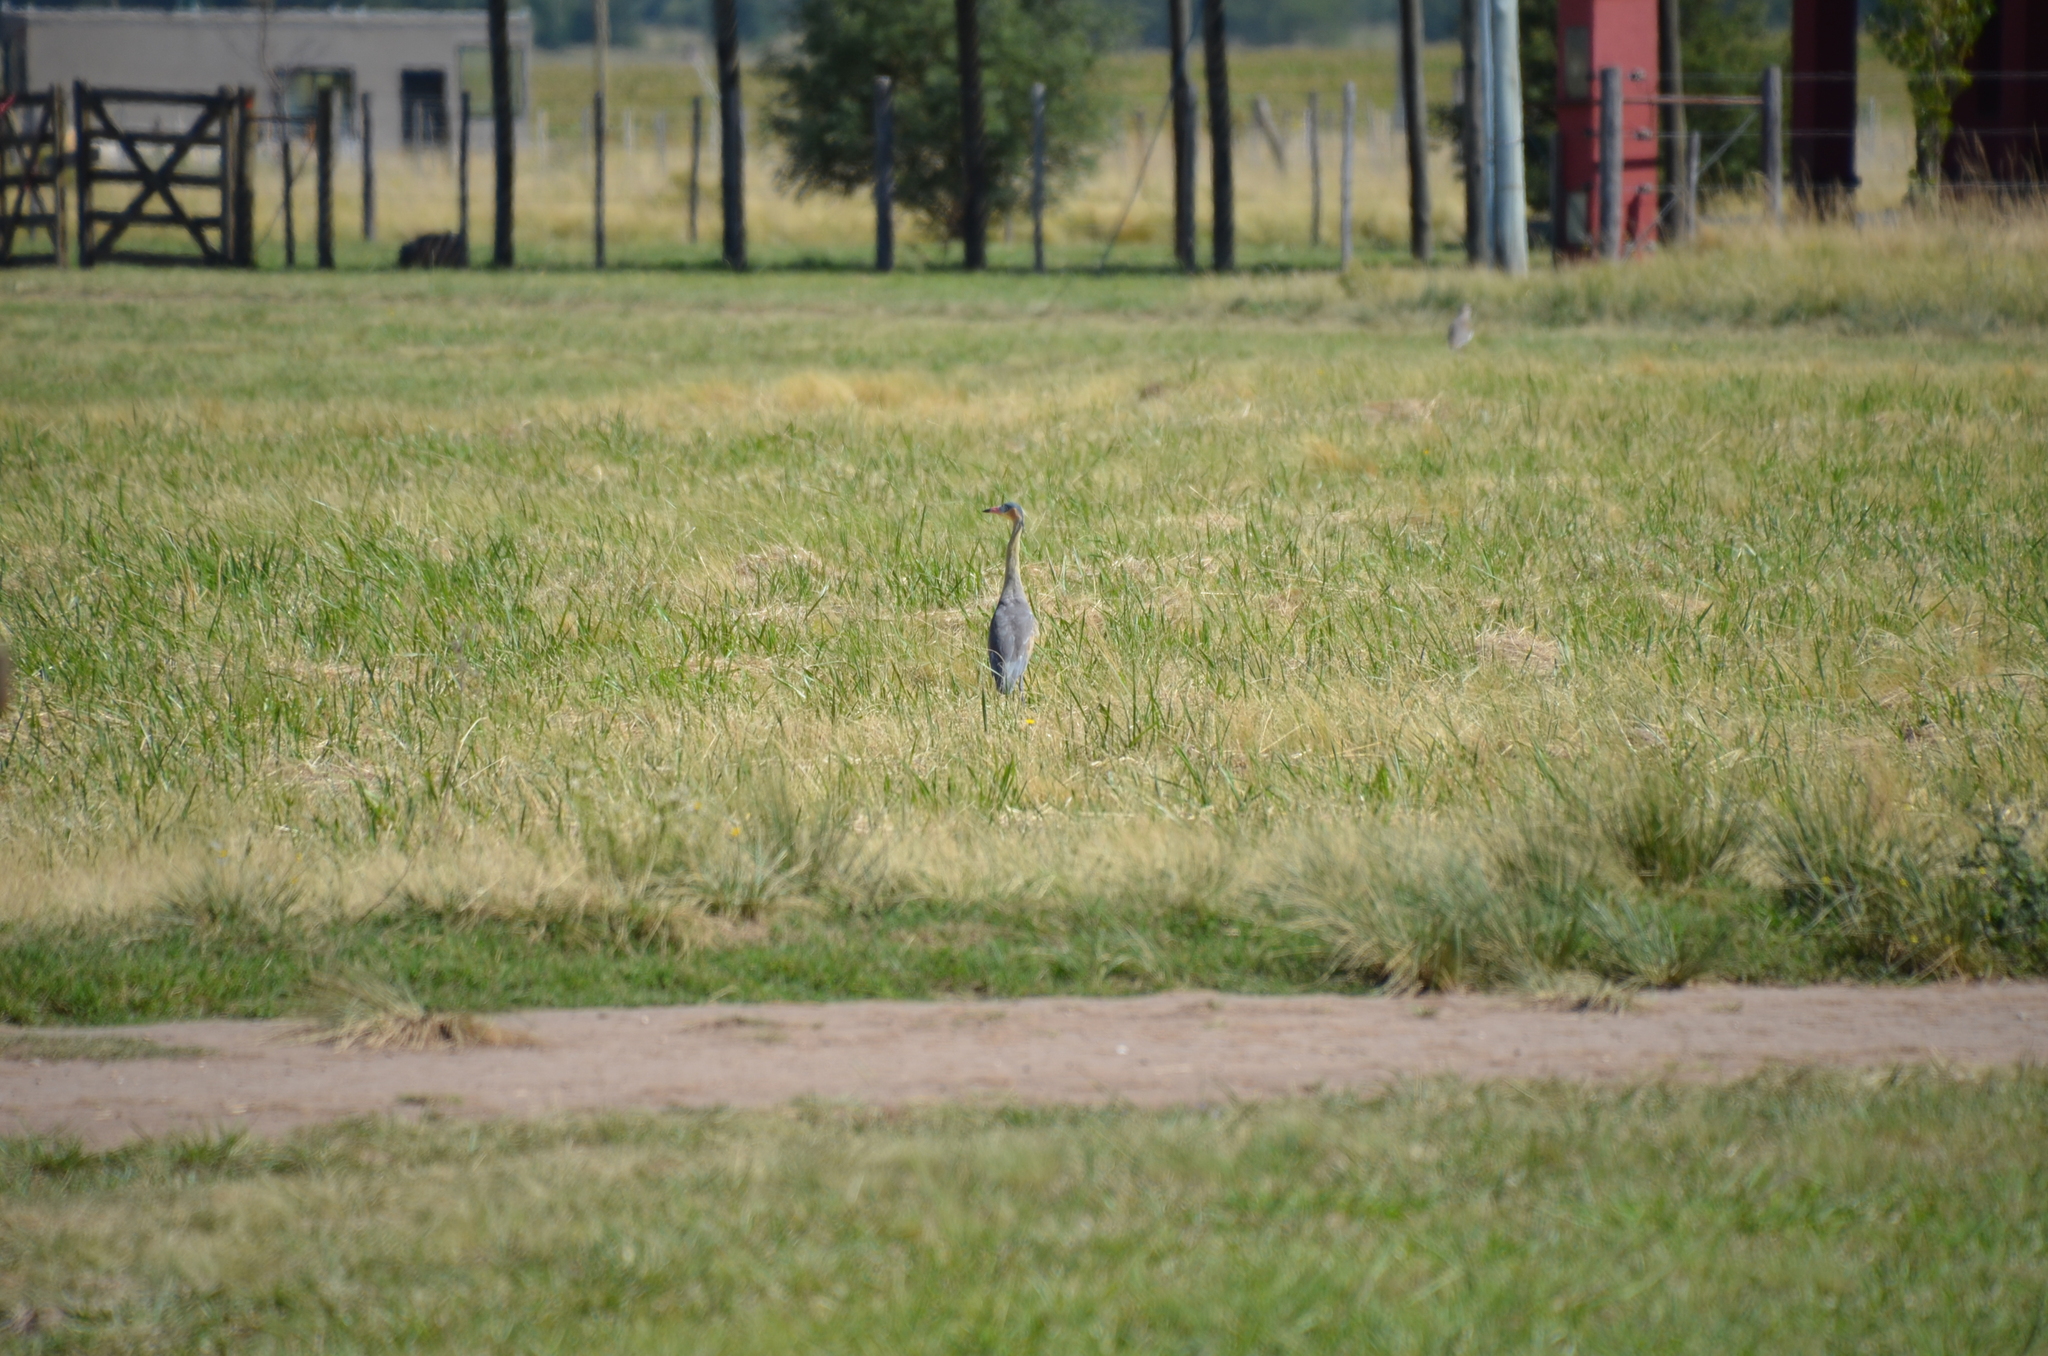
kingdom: Animalia
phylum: Chordata
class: Aves
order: Pelecaniformes
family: Ardeidae
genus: Syrigma
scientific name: Syrigma sibilatrix
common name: Whistling heron
